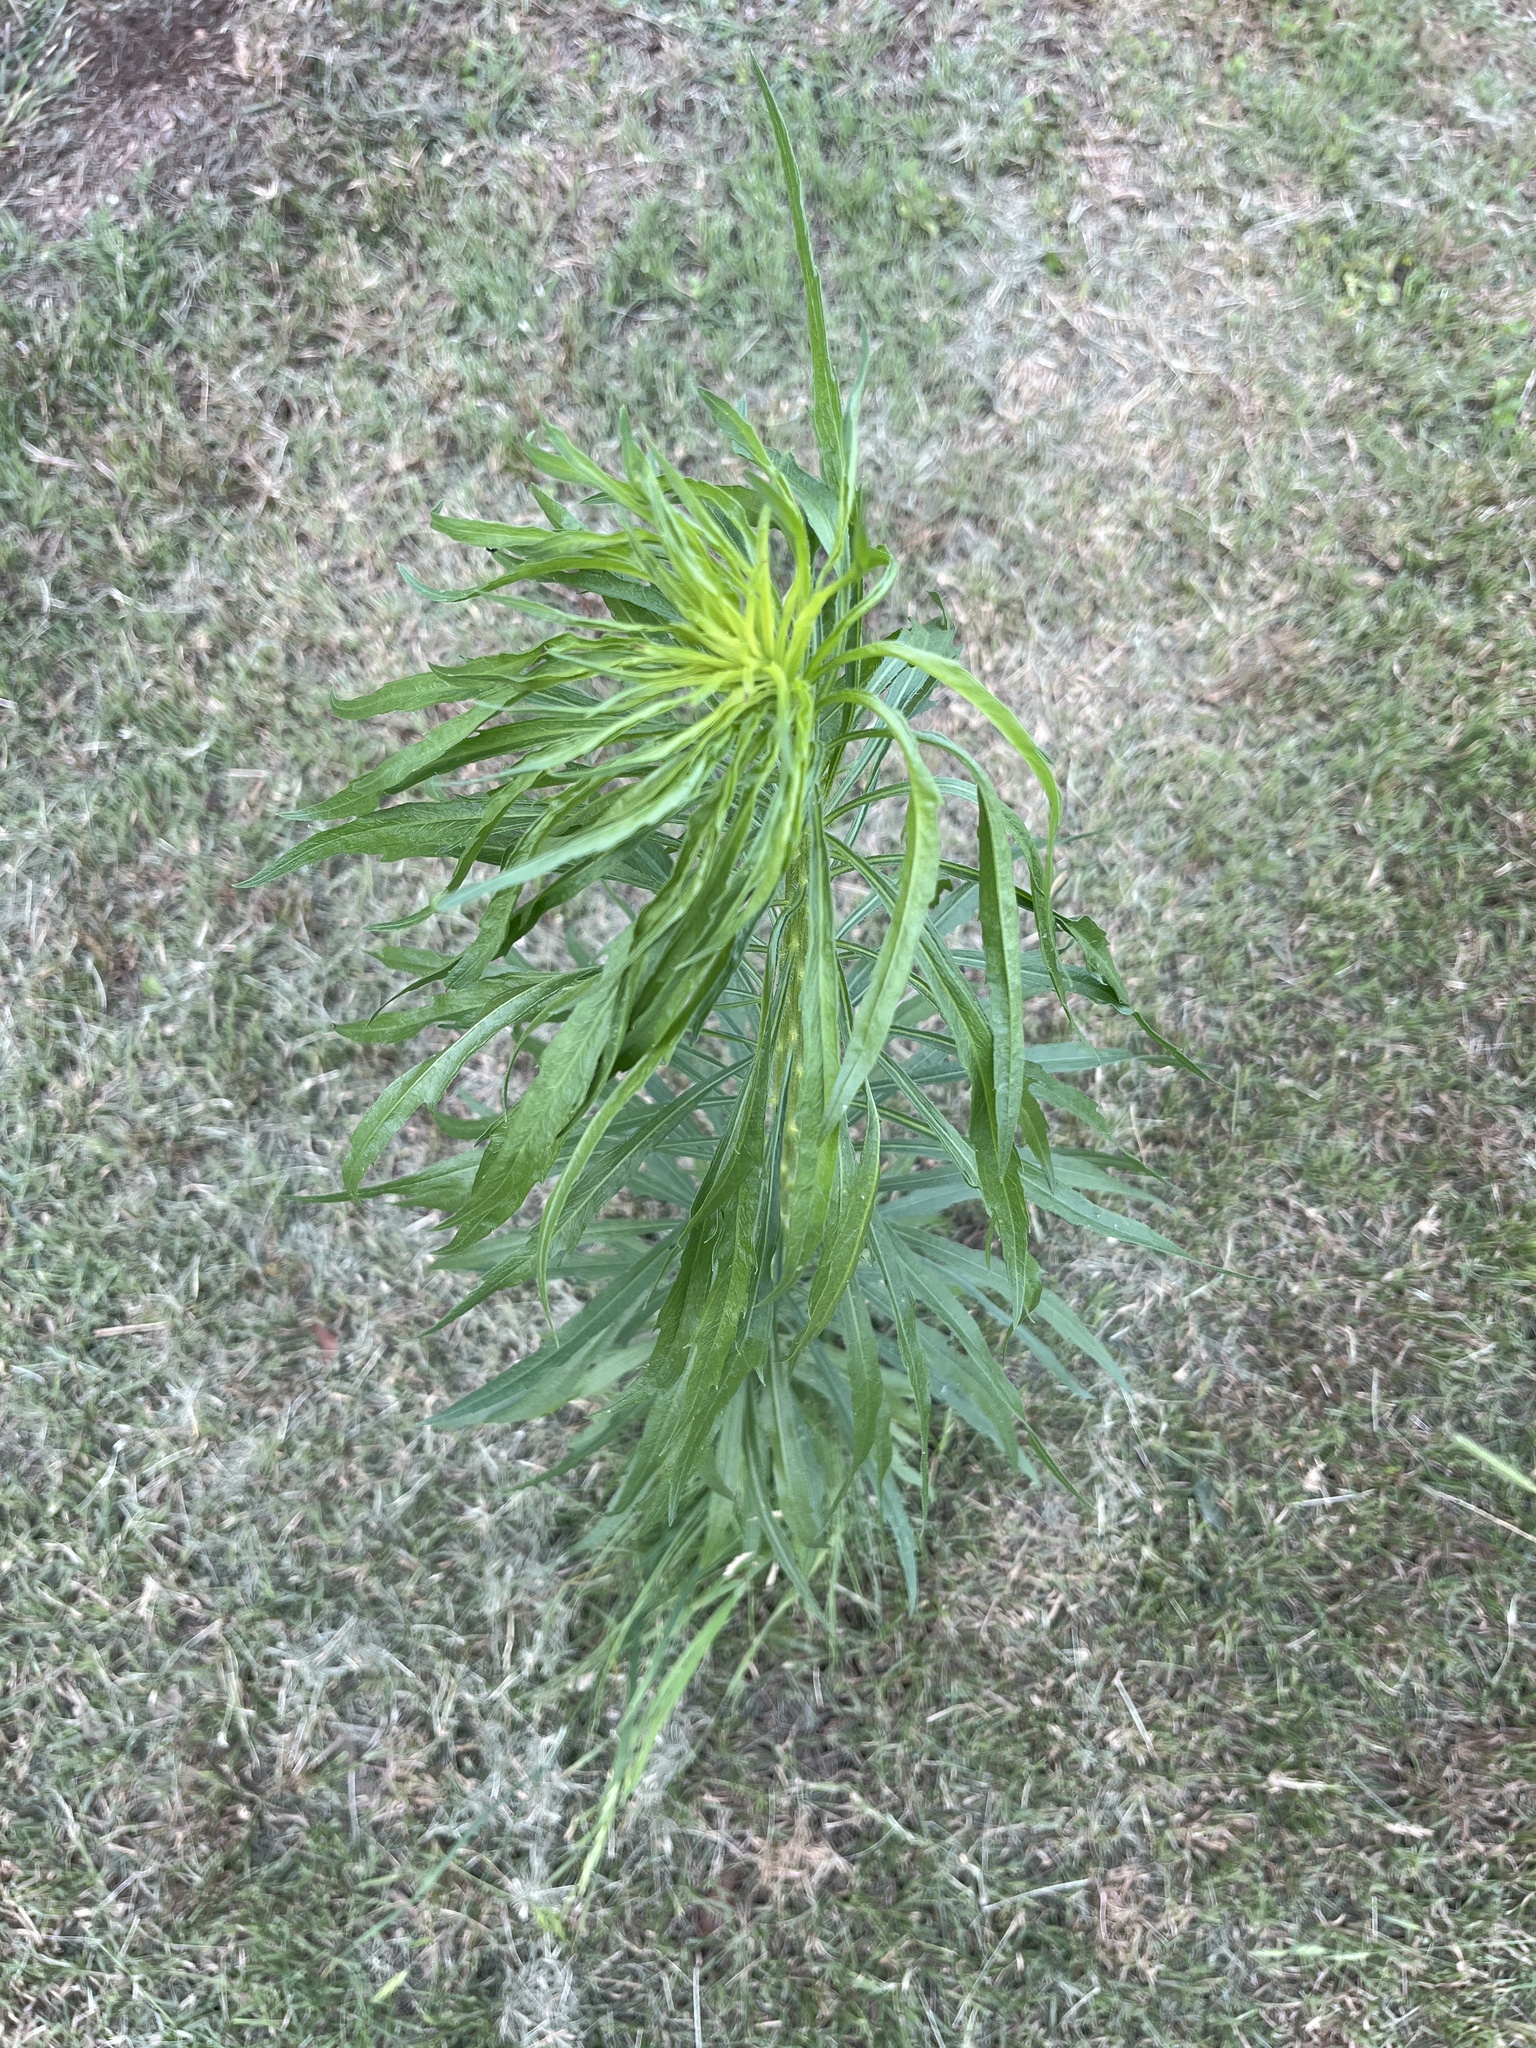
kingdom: Plantae
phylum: Tracheophyta
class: Magnoliopsida
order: Asterales
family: Asteraceae
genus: Erigeron
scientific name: Erigeron canadensis
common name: Canadian fleabane
